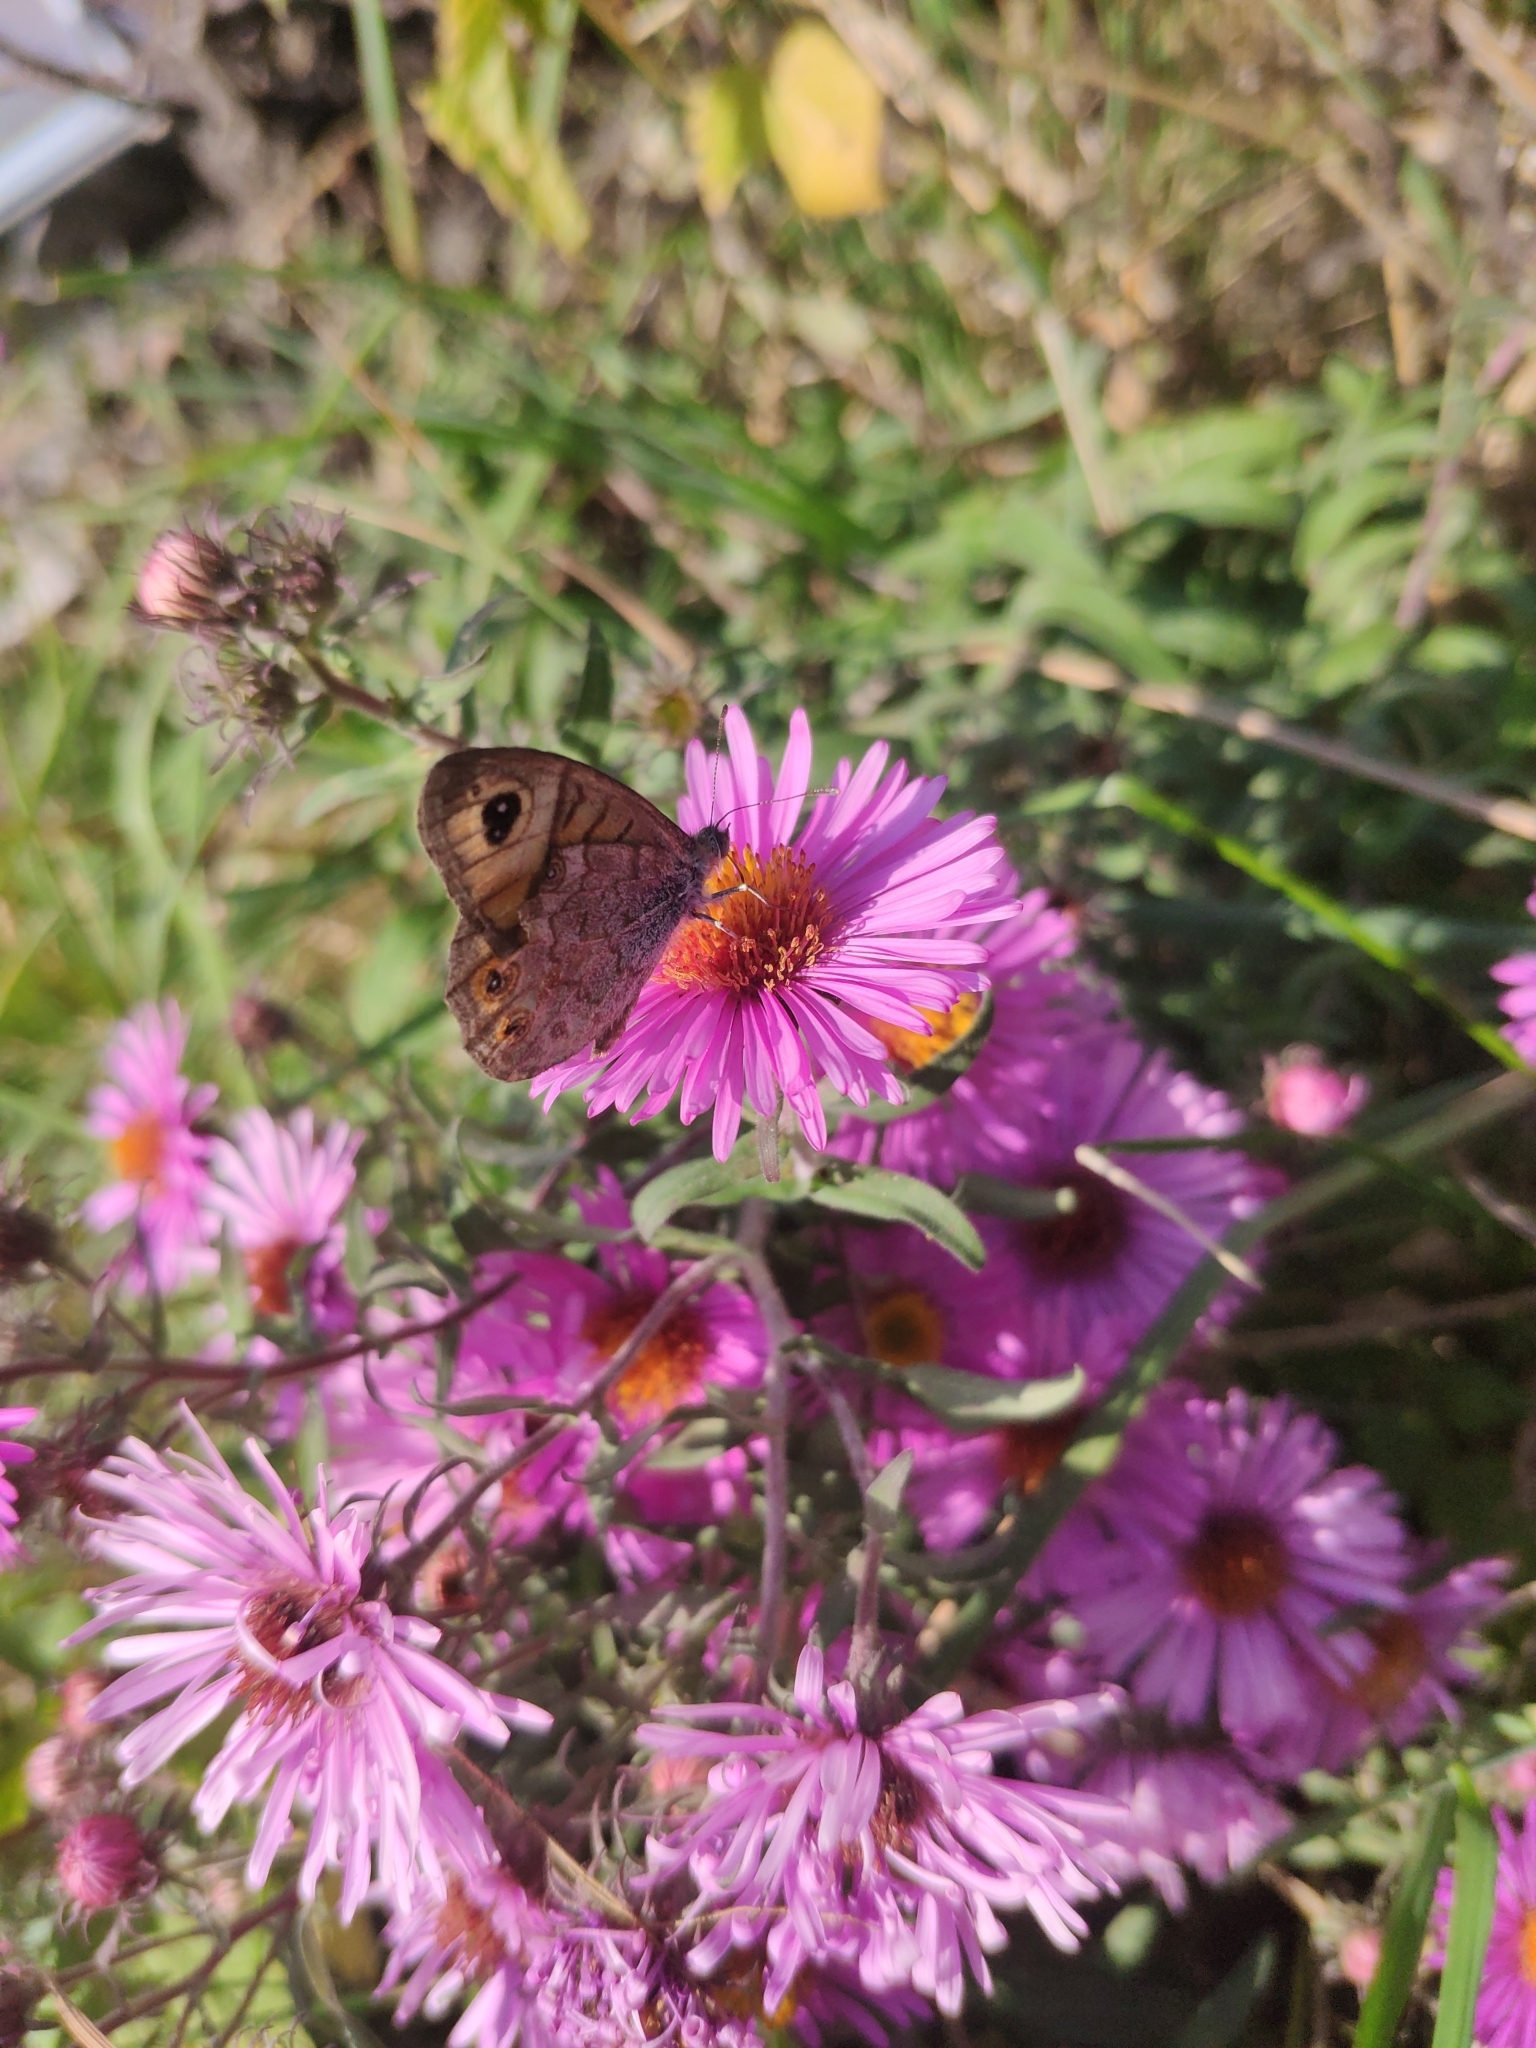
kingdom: Animalia
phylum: Arthropoda
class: Insecta
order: Lepidoptera
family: Nymphalidae
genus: Pararge
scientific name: Pararge Lasiommata maera
